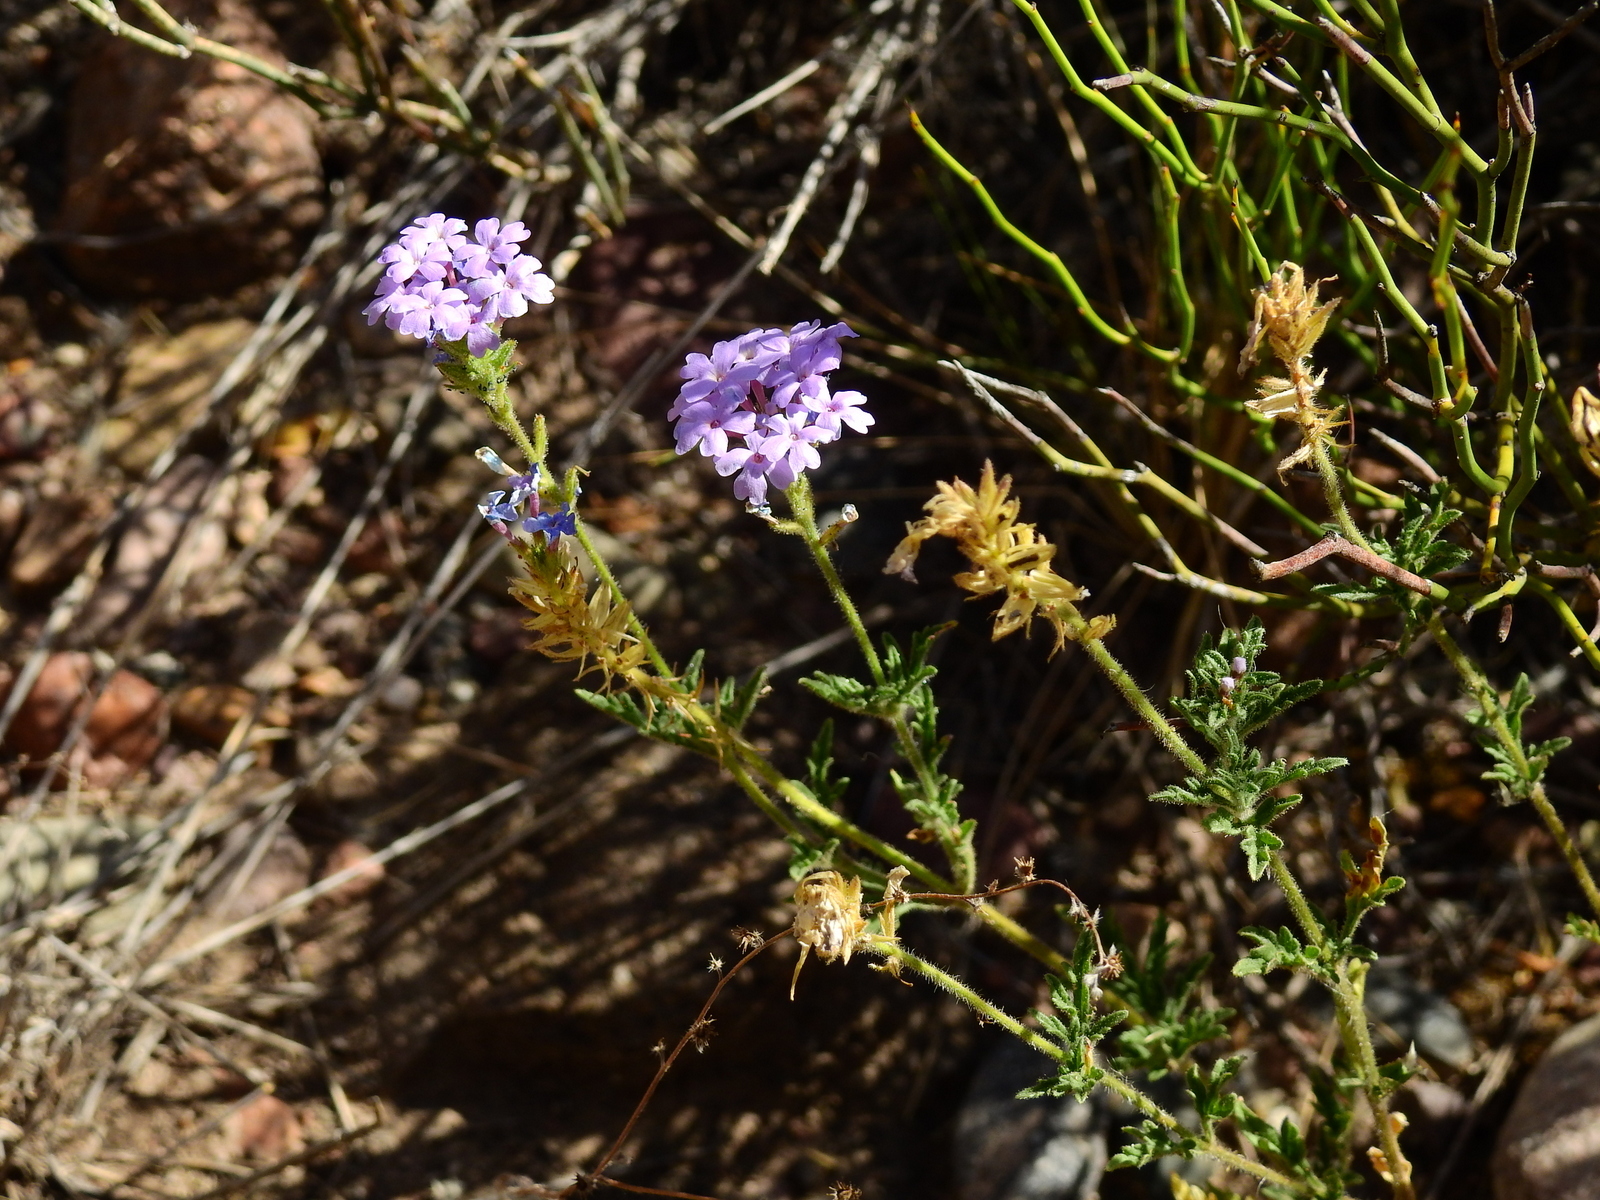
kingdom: Plantae
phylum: Tracheophyta
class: Magnoliopsida
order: Lamiales
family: Verbenaceae
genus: Verbena
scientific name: Verbena mendocina
